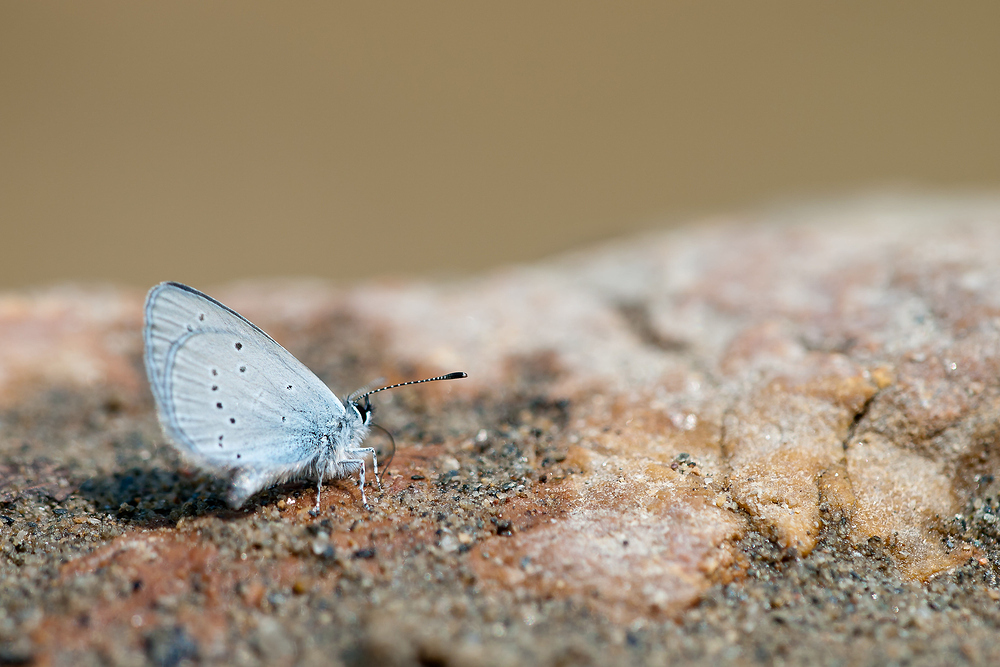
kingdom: Animalia
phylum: Arthropoda
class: Insecta
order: Lepidoptera
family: Lycaenidae
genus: Cupido
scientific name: Cupido minimus
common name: Small blue
